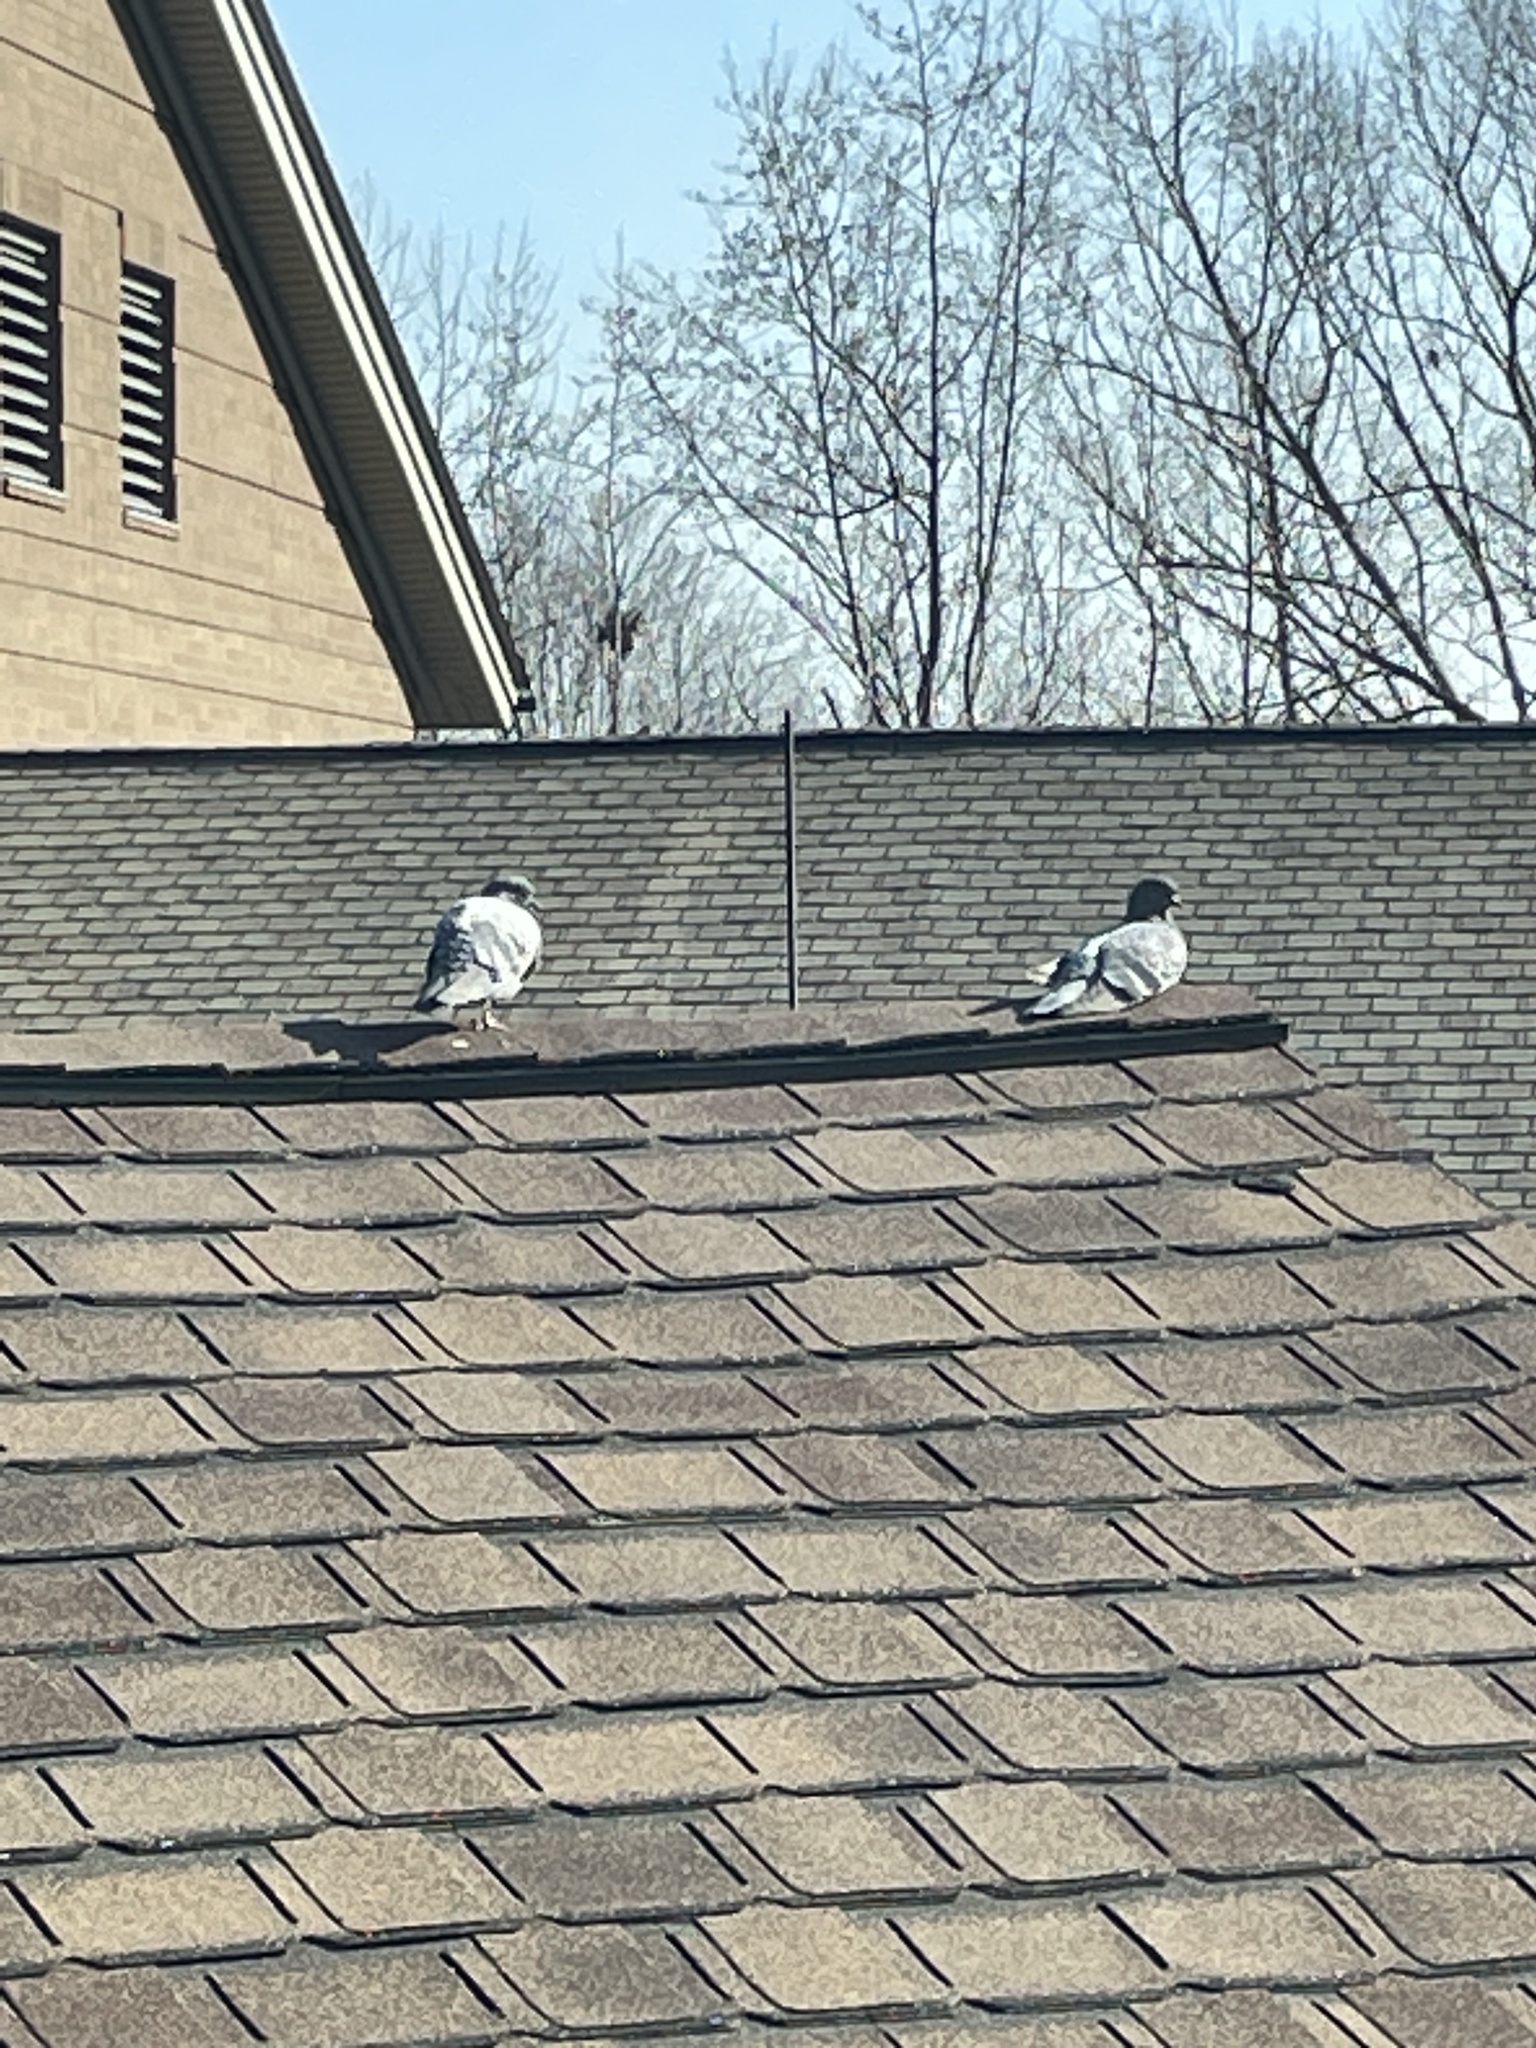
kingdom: Animalia
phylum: Chordata
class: Aves
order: Columbiformes
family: Columbidae
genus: Columba
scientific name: Columba livia
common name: Rock pigeon
